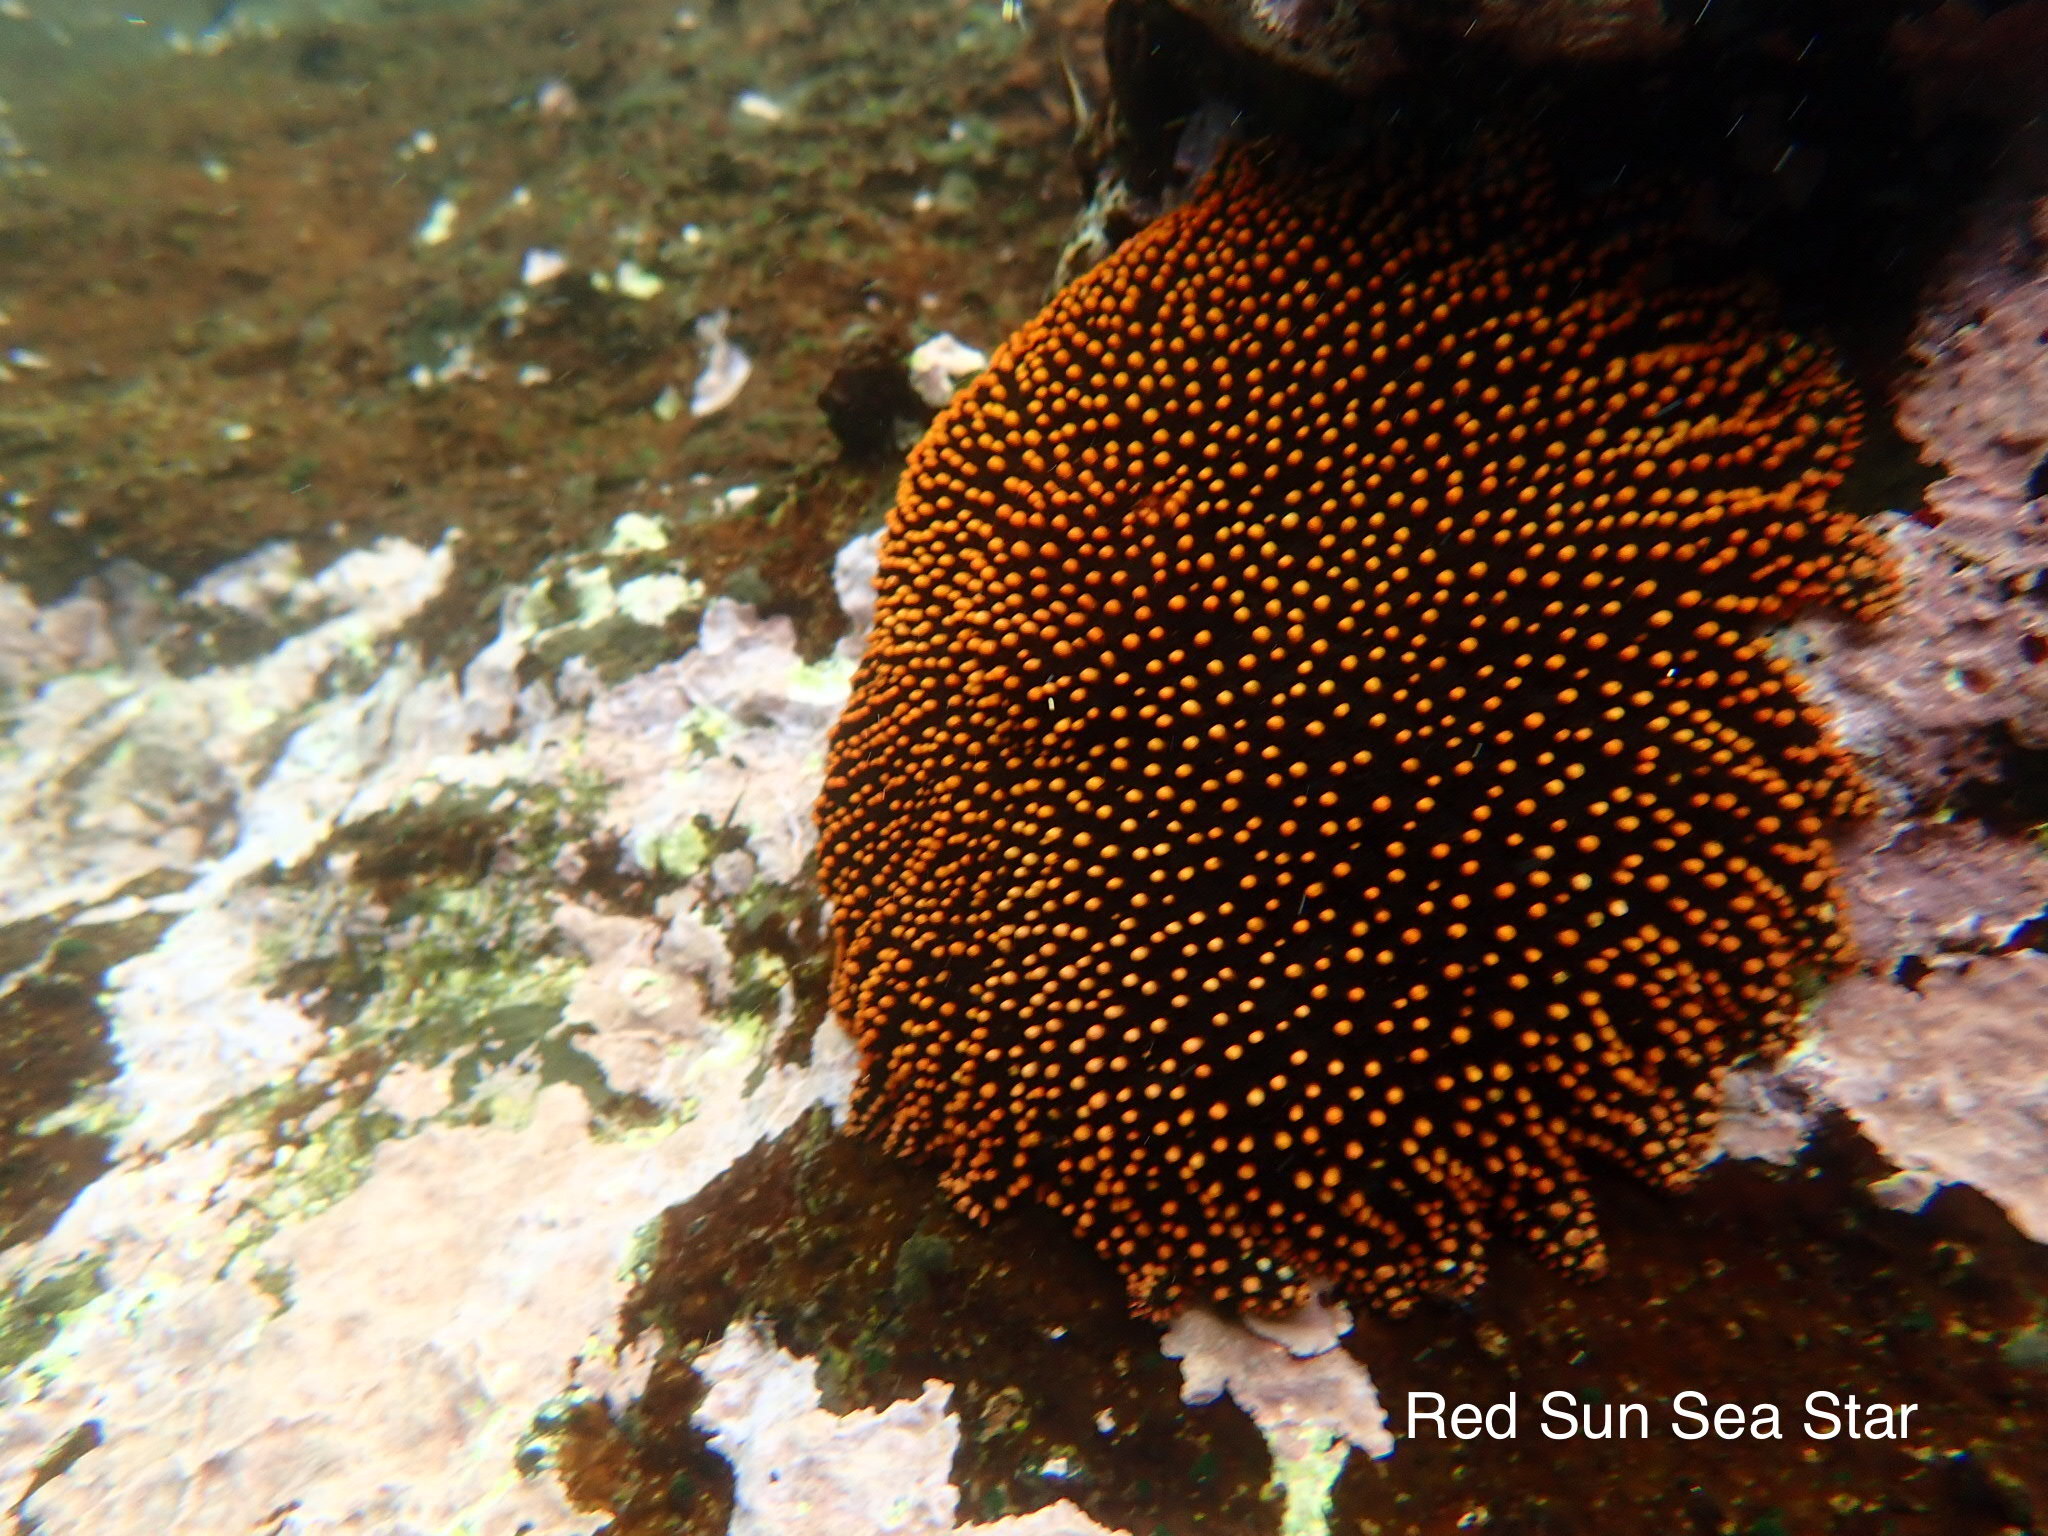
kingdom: Animalia
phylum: Echinodermata
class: Asteroidea
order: Forcipulatida
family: Heliasteridae
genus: Heliaster
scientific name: Heliaster cumingi
